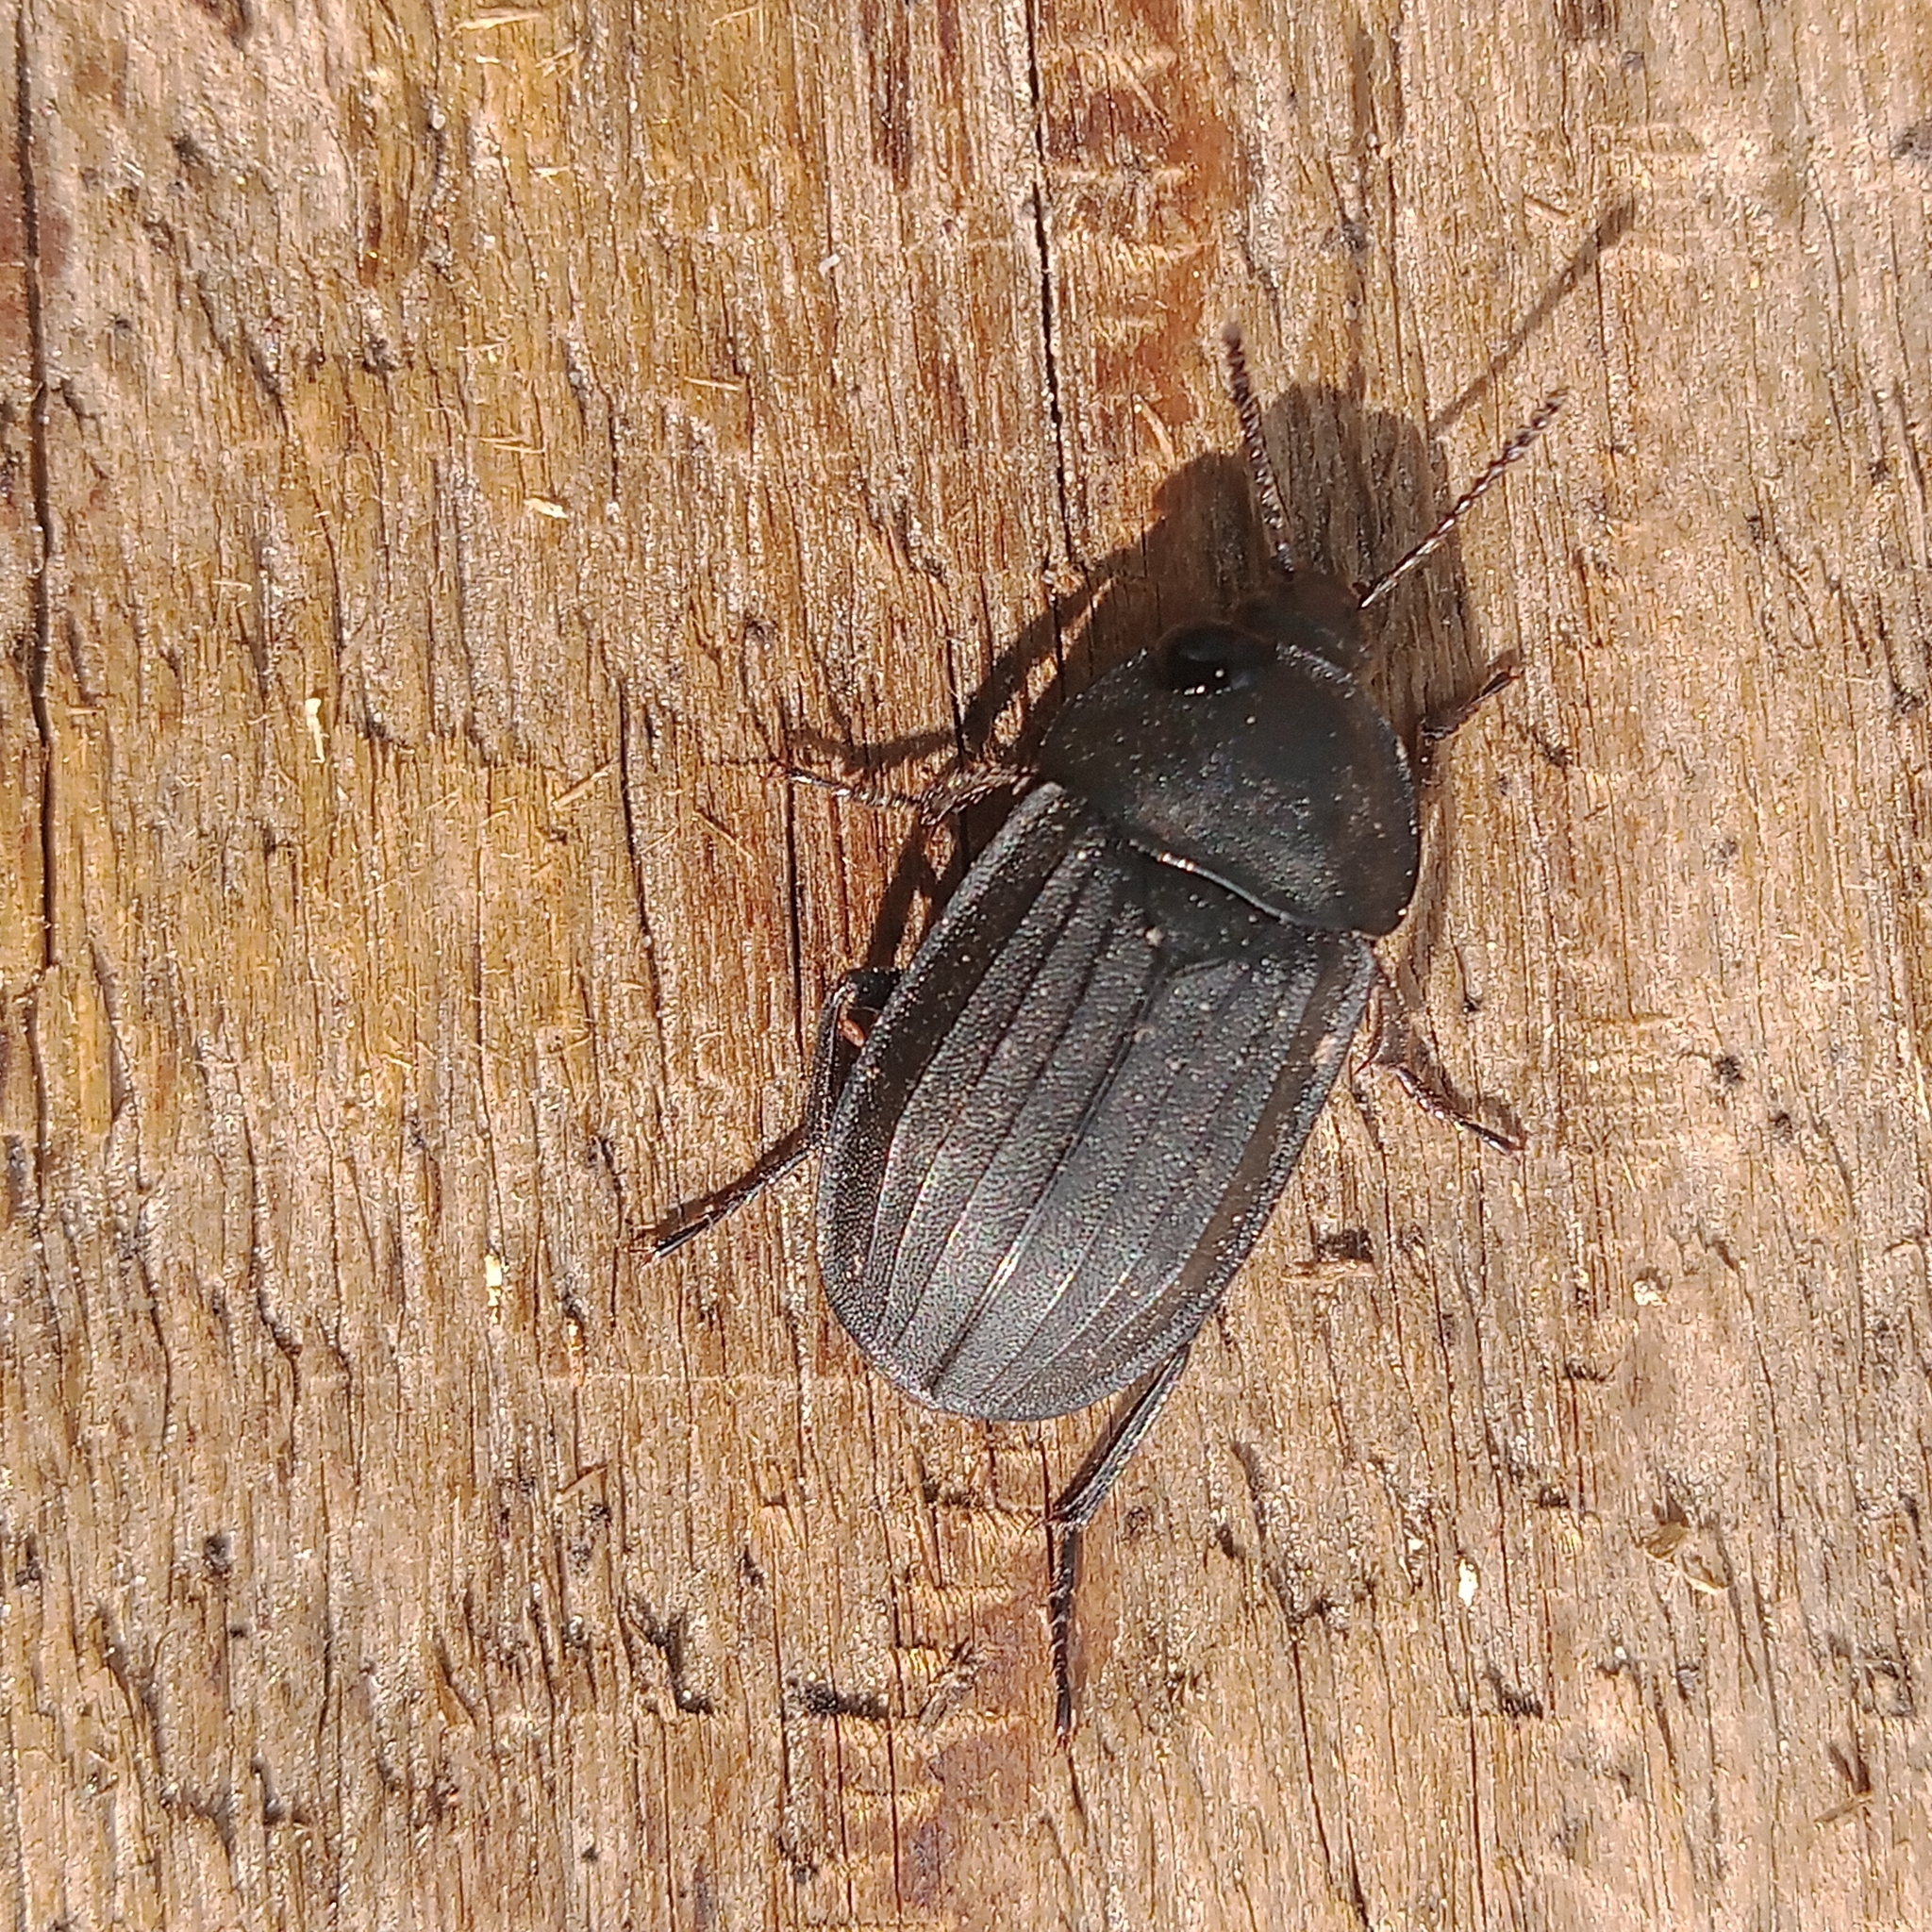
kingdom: Animalia
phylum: Arthropoda
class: Insecta
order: Coleoptera
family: Staphylinidae
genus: Silpha
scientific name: Silpha tristis
